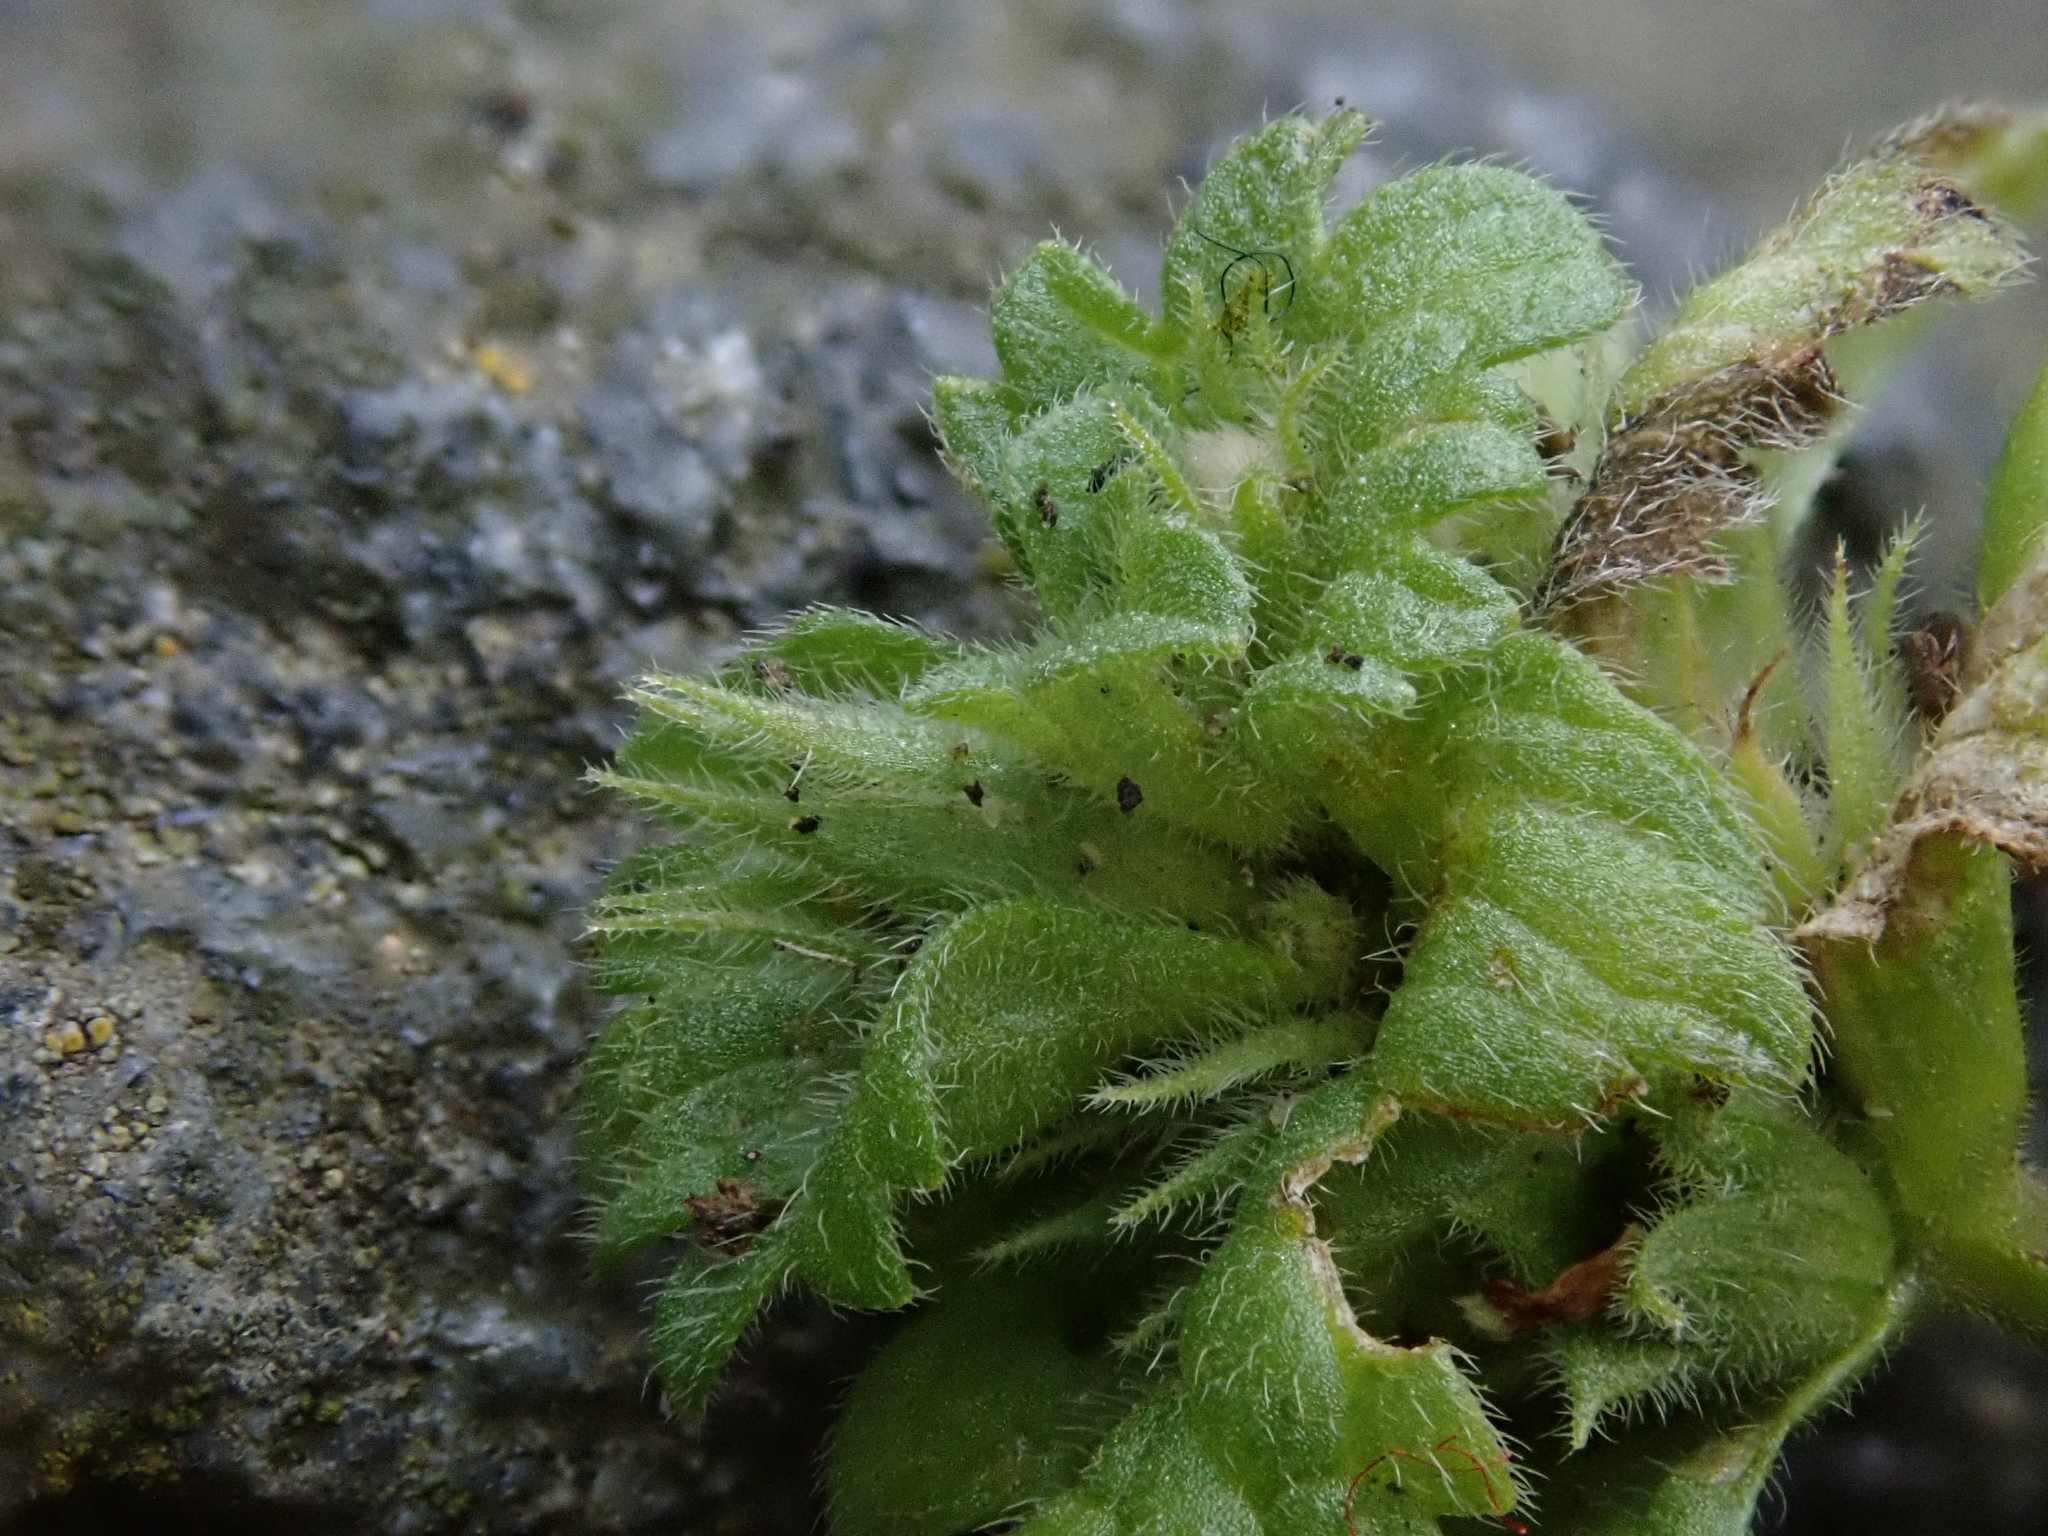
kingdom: Plantae
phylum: Tracheophyta
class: Magnoliopsida
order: Lamiales
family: Lamiaceae
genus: Lamium
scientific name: Lamium amplexicaule
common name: Henbit dead-nettle
